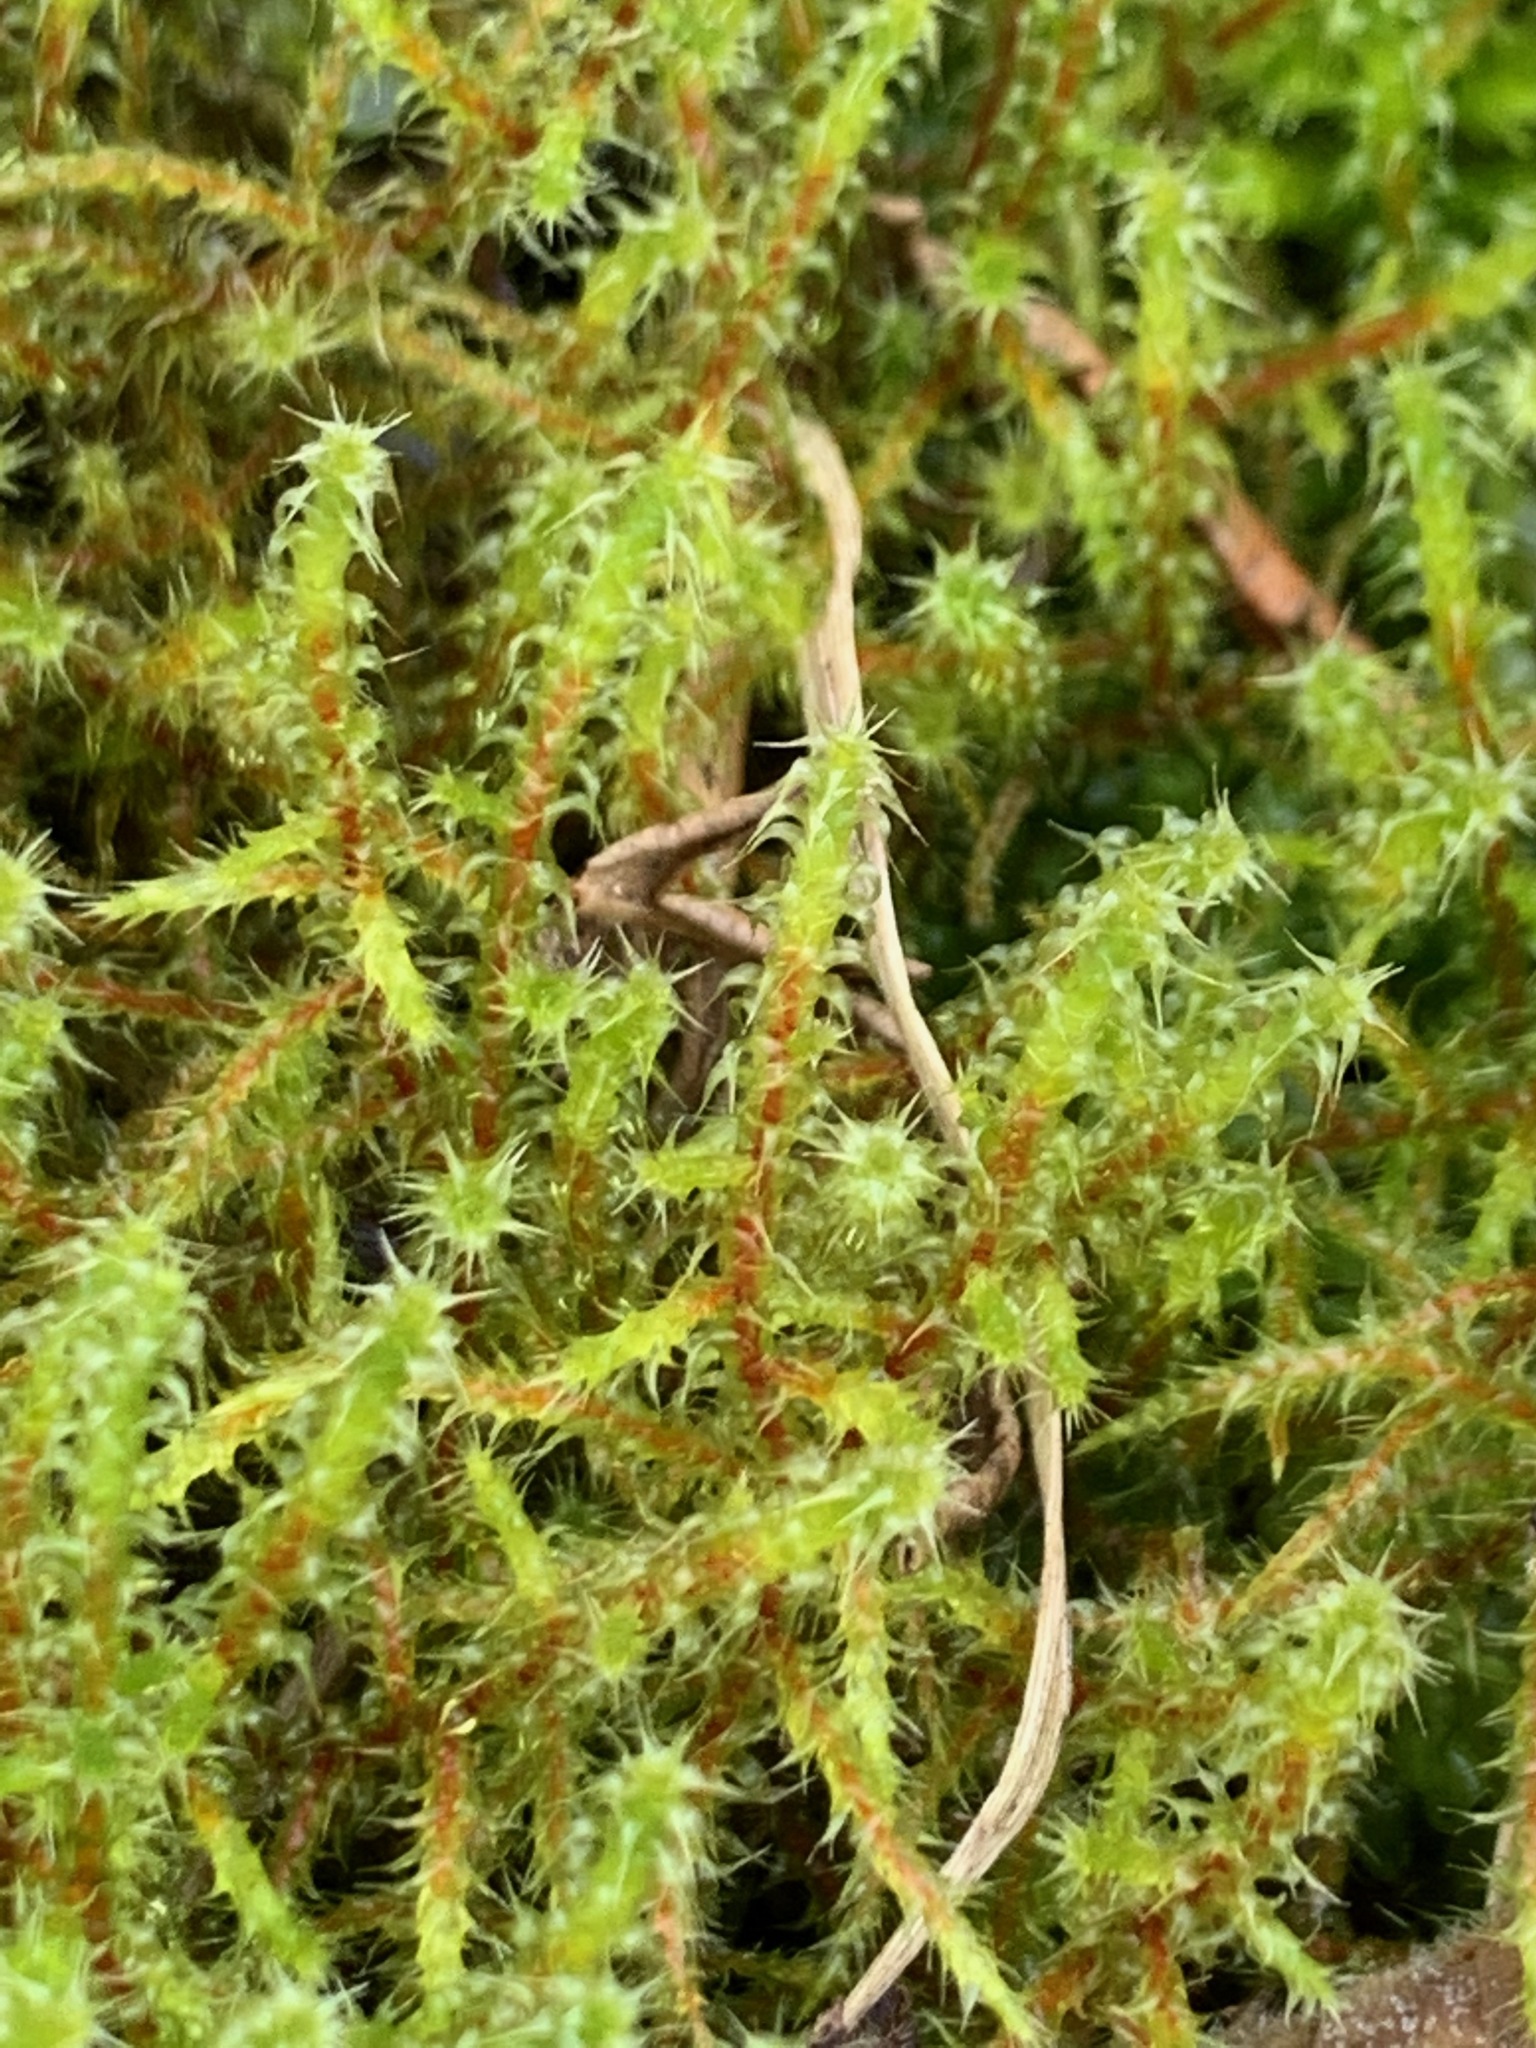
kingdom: Plantae
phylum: Bryophyta
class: Bryopsida
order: Hypnales
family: Hylocomiaceae
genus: Rhytidiadelphus
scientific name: Rhytidiadelphus squarrosus
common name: Springy turf-moss
